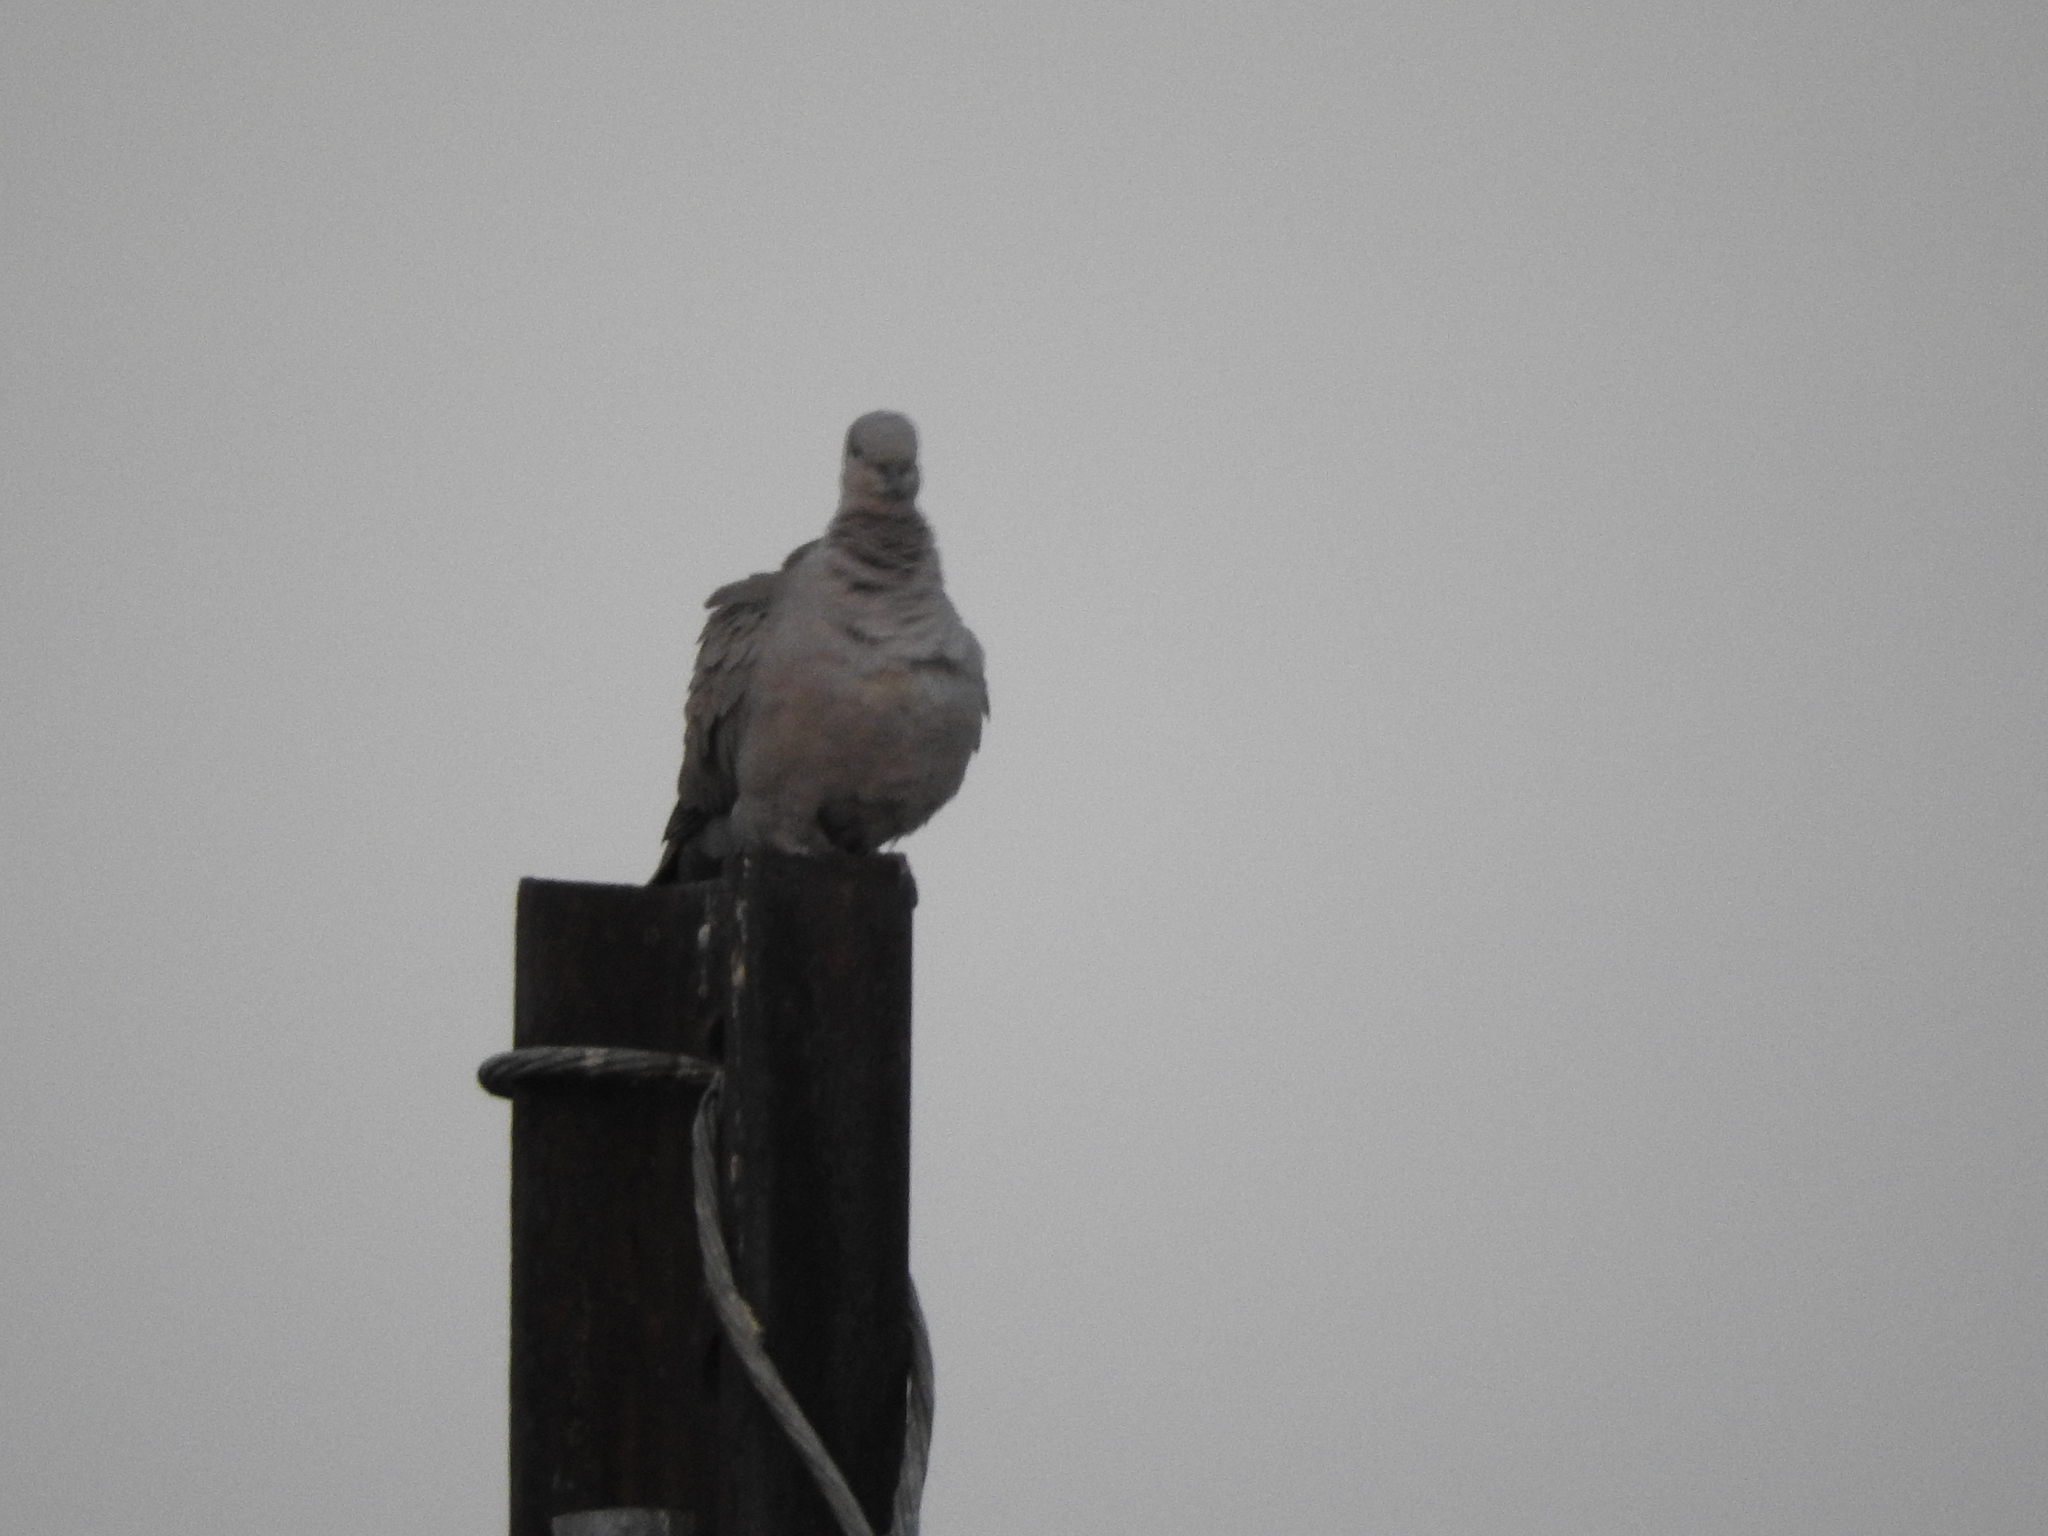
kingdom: Animalia
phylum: Chordata
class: Aves
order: Columbiformes
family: Columbidae
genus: Streptopelia
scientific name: Streptopelia decaocto
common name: Eurasian collared dove
